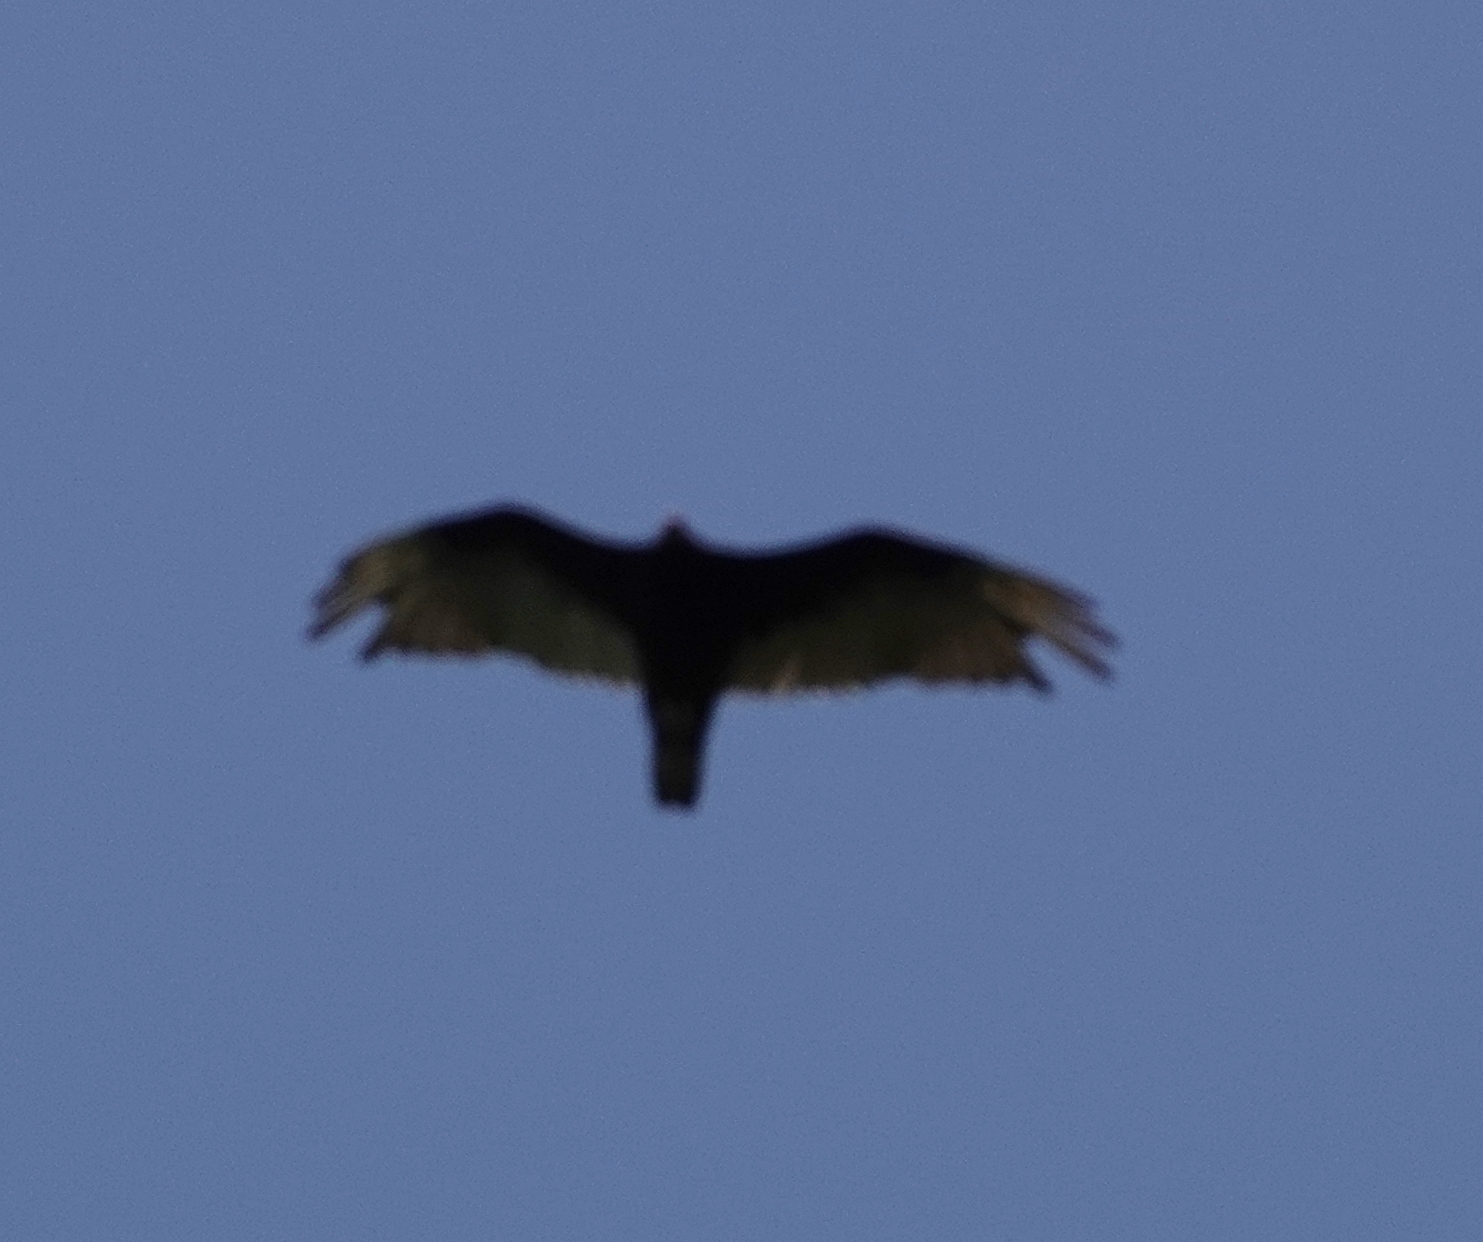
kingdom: Animalia
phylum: Chordata
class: Aves
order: Accipitriformes
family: Cathartidae
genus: Cathartes
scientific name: Cathartes aura
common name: Turkey vulture
